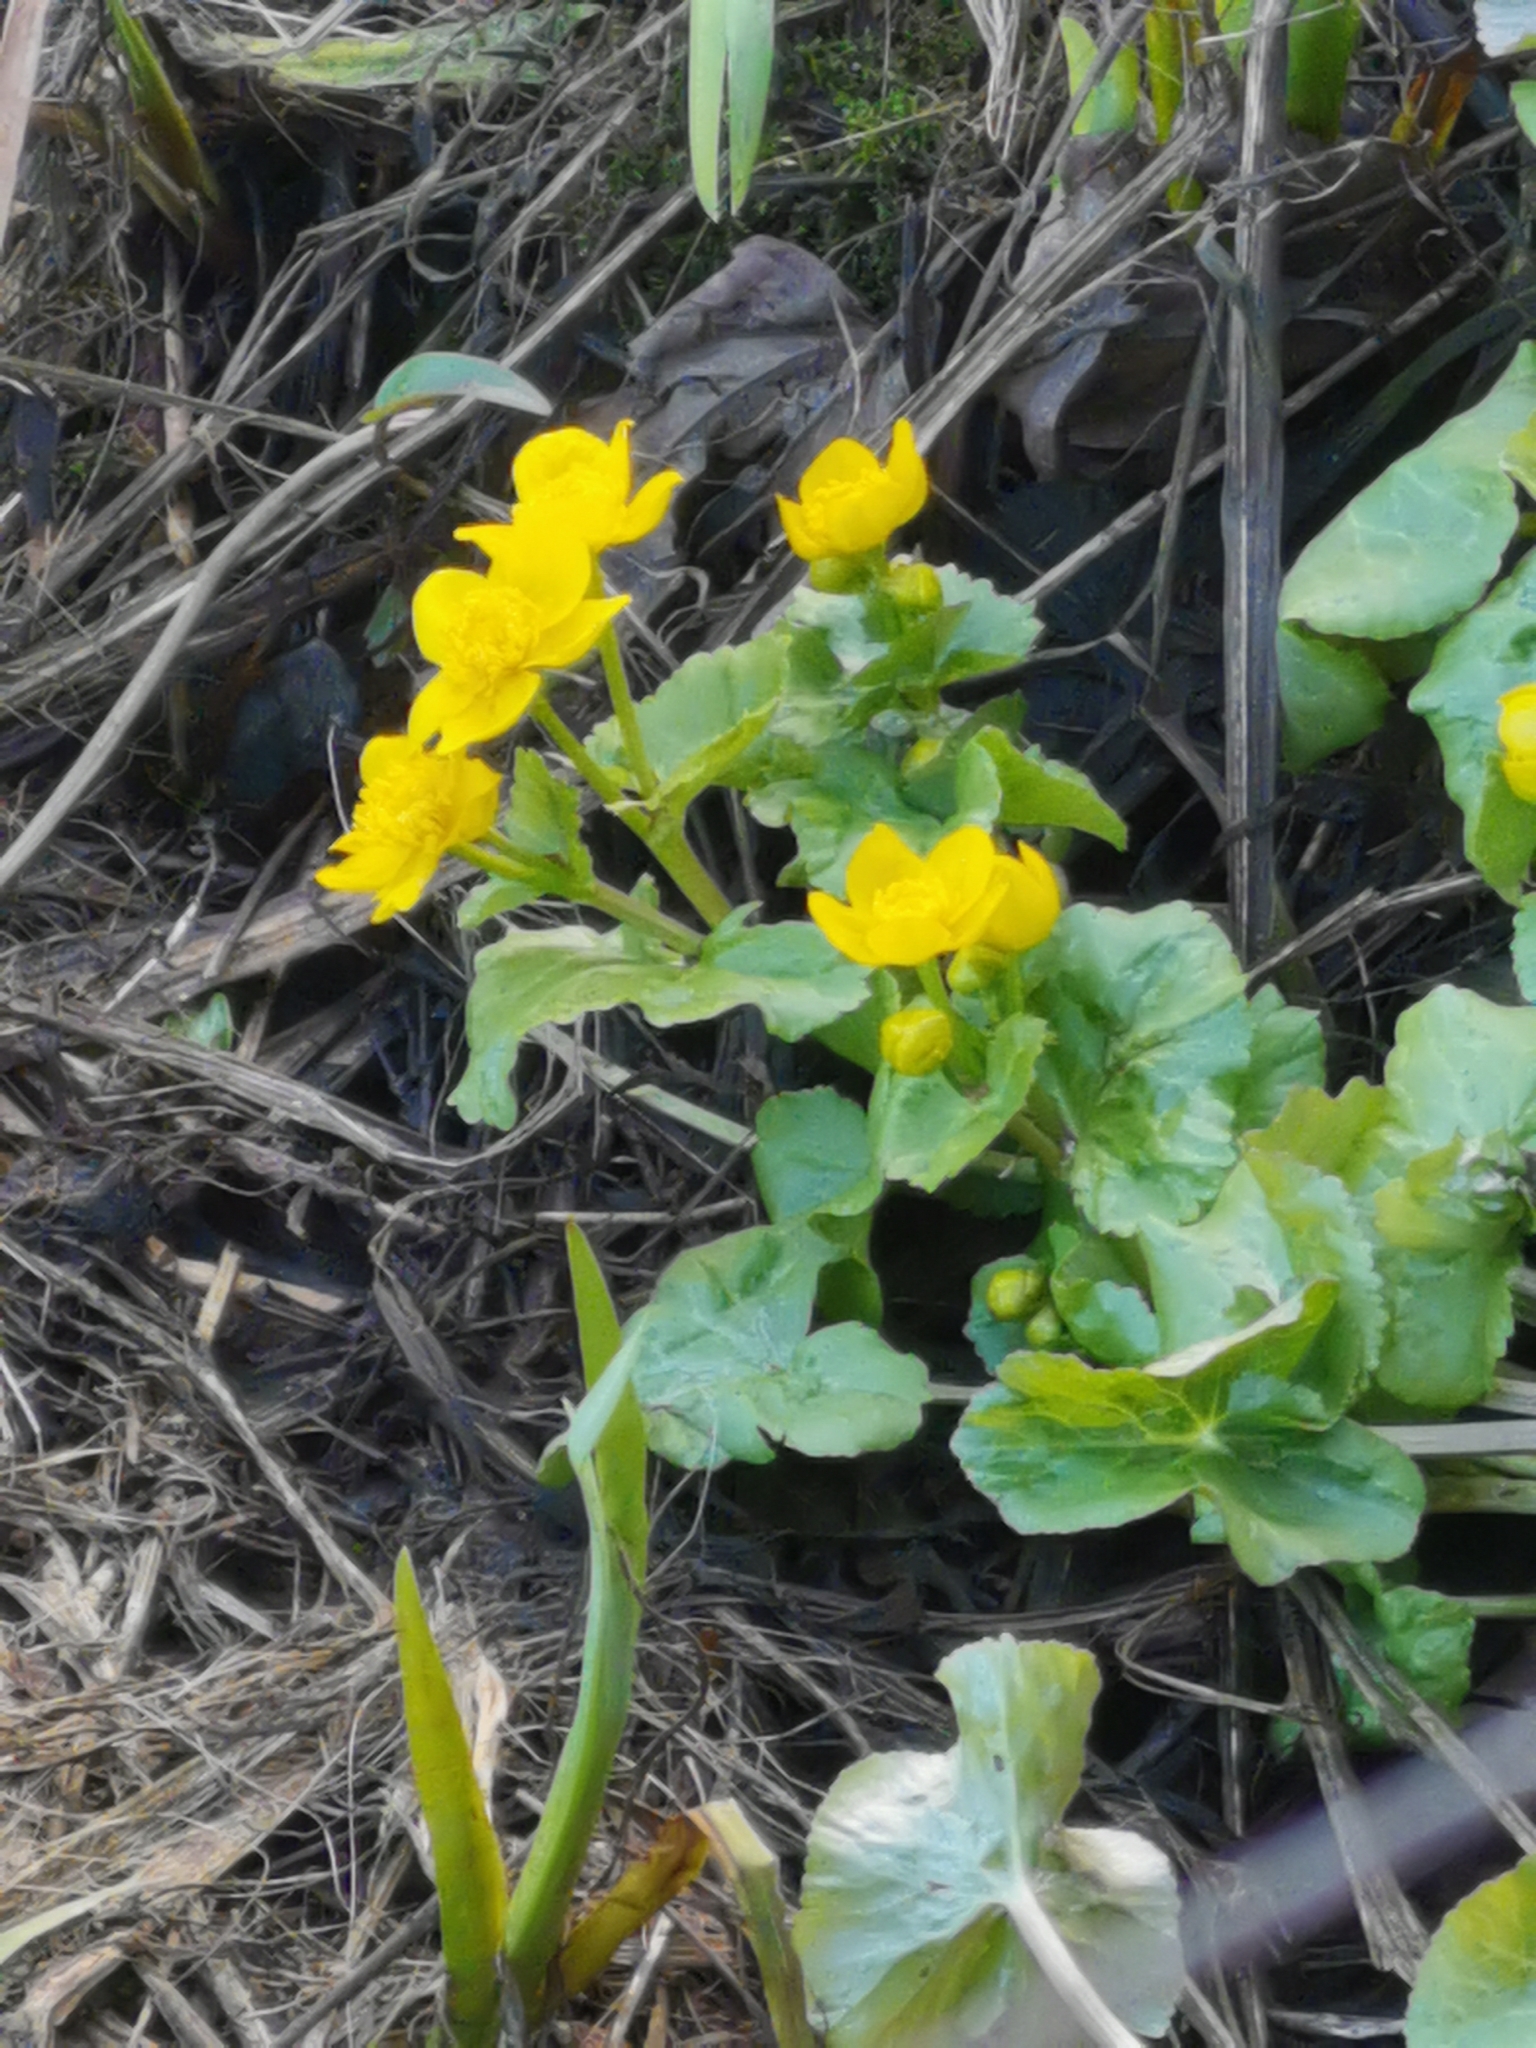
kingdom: Plantae
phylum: Tracheophyta
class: Magnoliopsida
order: Ranunculales
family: Ranunculaceae
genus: Caltha
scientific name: Caltha palustris
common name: Marsh marigold
